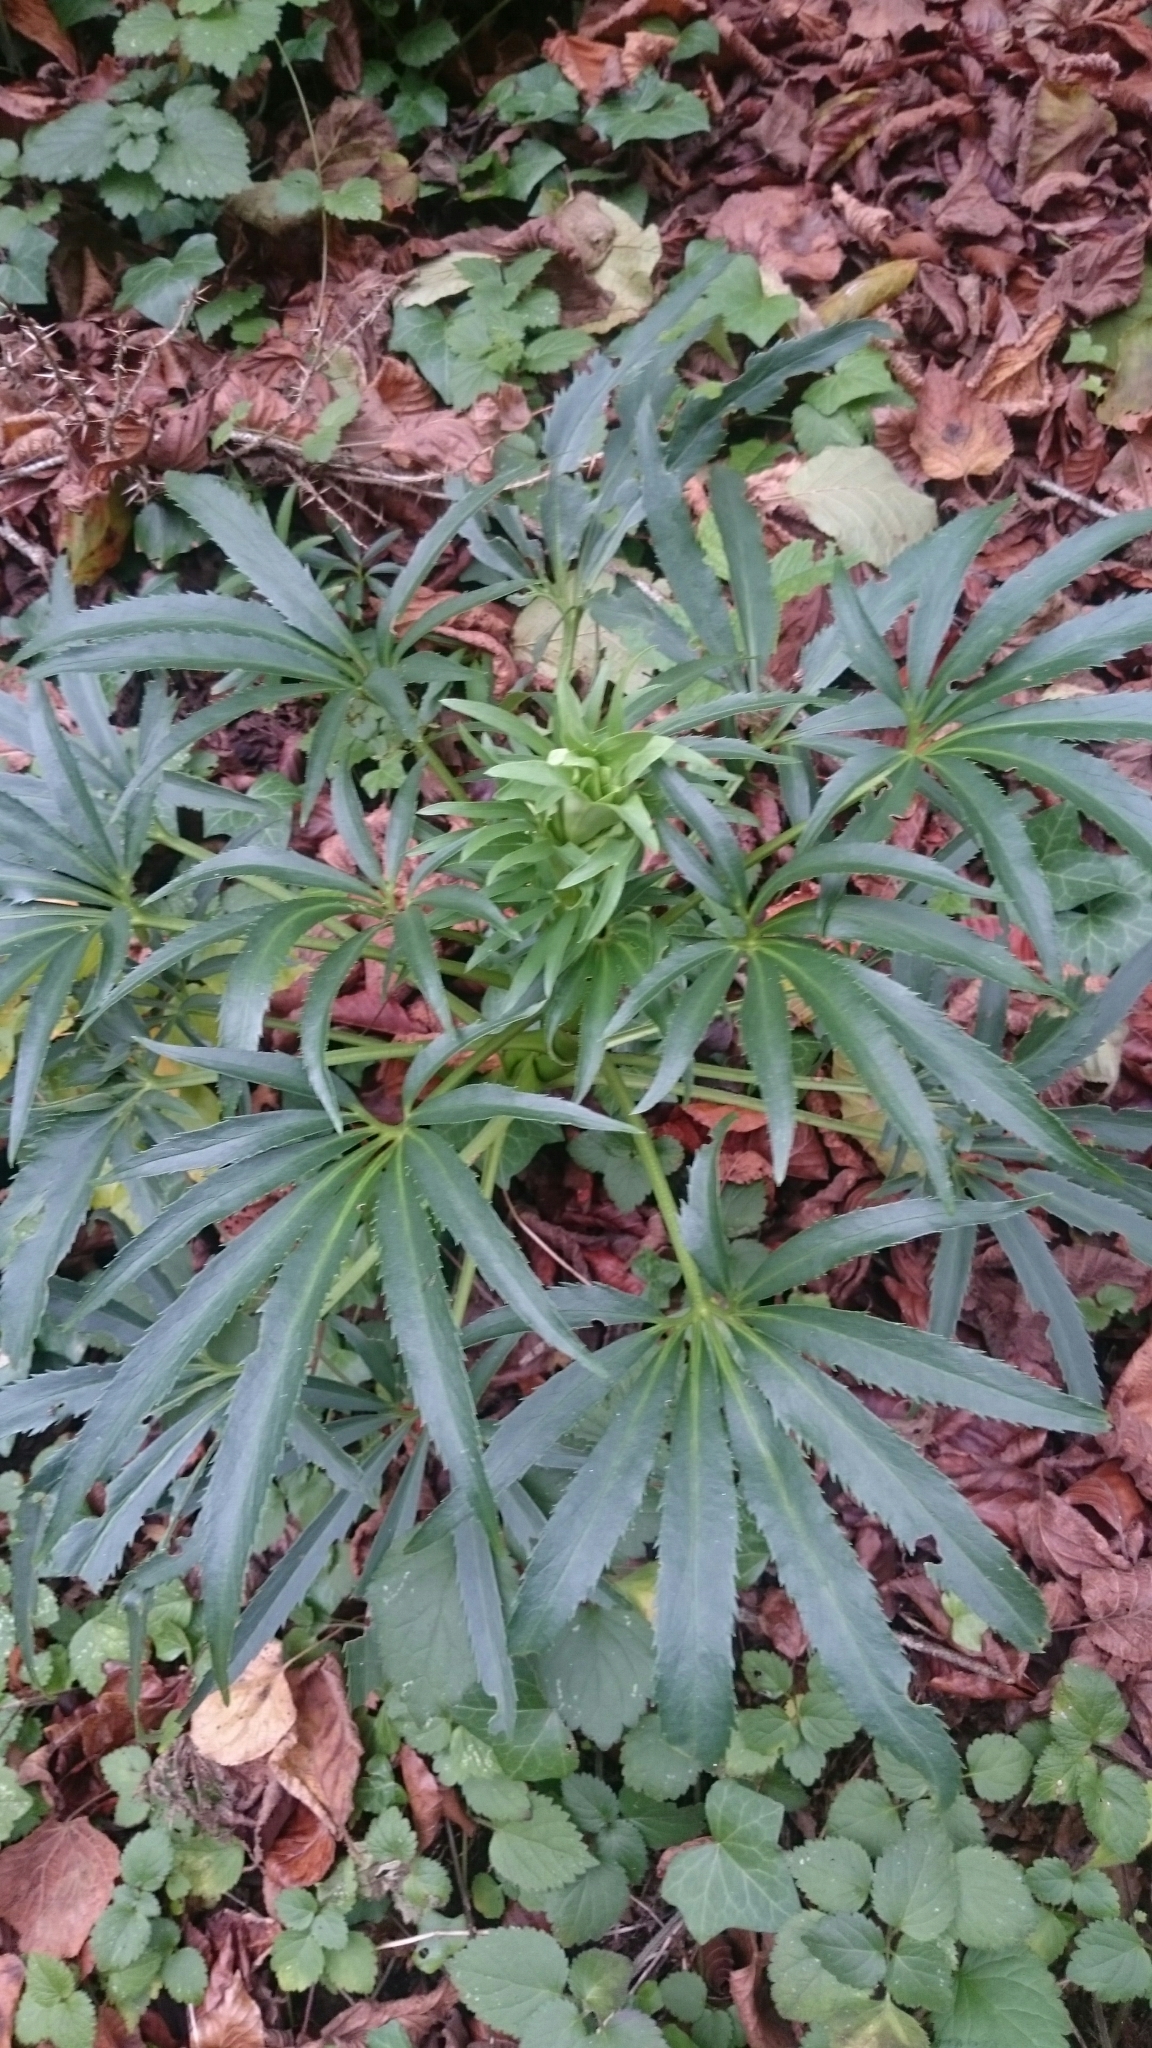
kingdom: Plantae
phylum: Tracheophyta
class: Magnoliopsida
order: Ranunculales
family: Ranunculaceae
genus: Helleborus
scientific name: Helleborus foetidus
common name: Stinking hellebore
